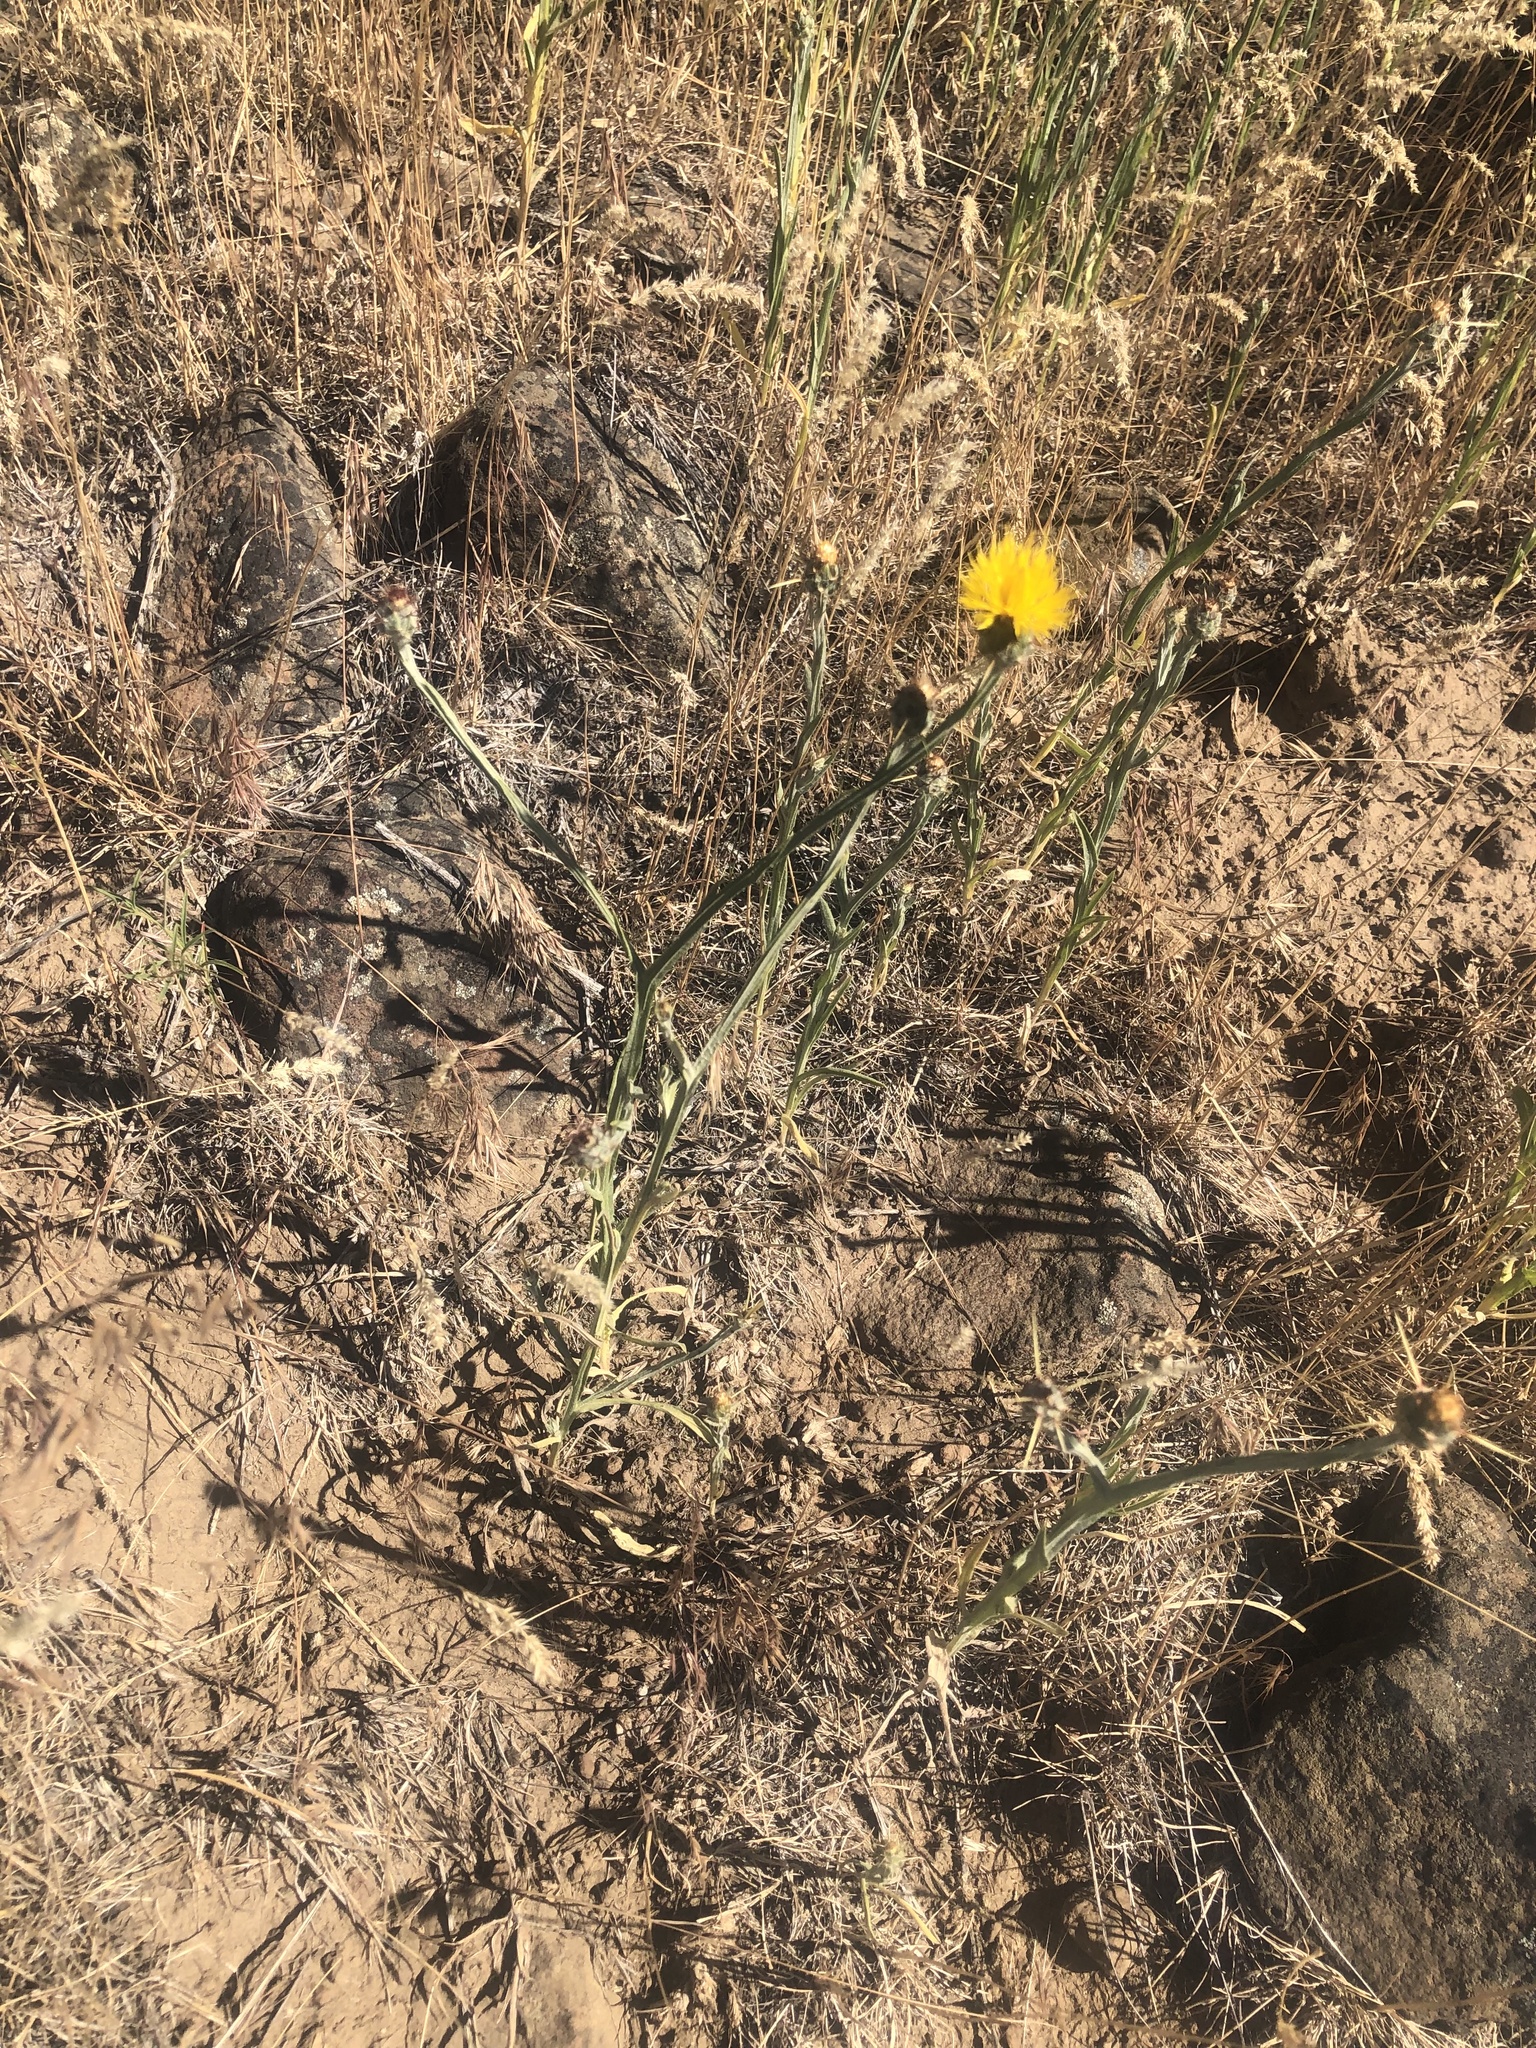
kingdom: Plantae
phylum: Tracheophyta
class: Magnoliopsida
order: Asterales
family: Asteraceae
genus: Centaurea
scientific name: Centaurea solstitialis
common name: Yellow star-thistle
